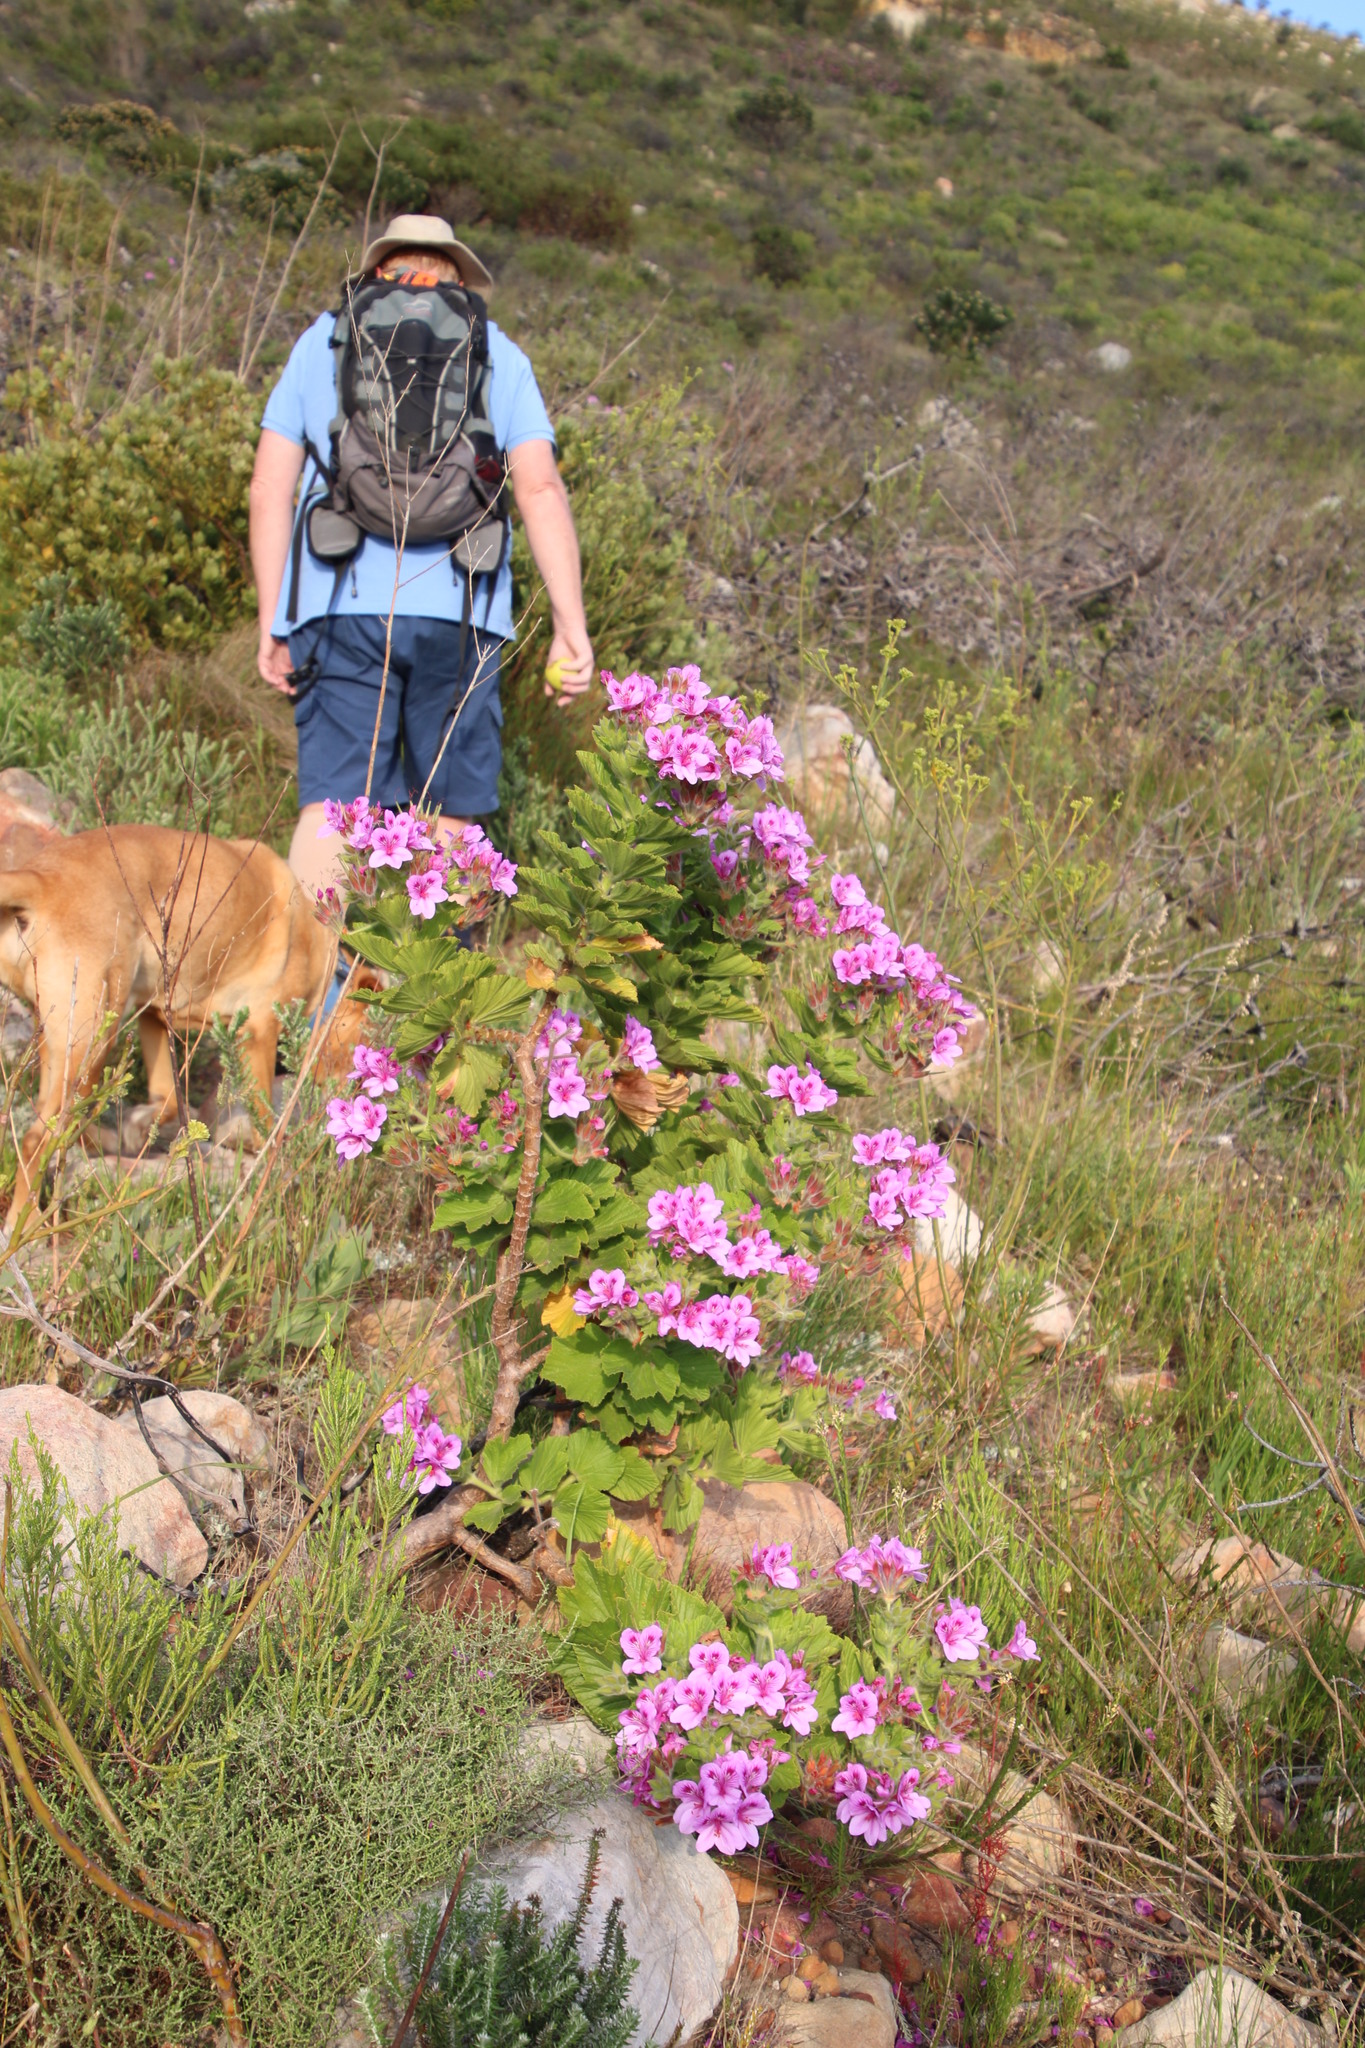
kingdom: Plantae
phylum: Tracheophyta
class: Magnoliopsida
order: Geraniales
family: Geraniaceae
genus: Pelargonium
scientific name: Pelargonium cucullatum
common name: Tree pelargonium
